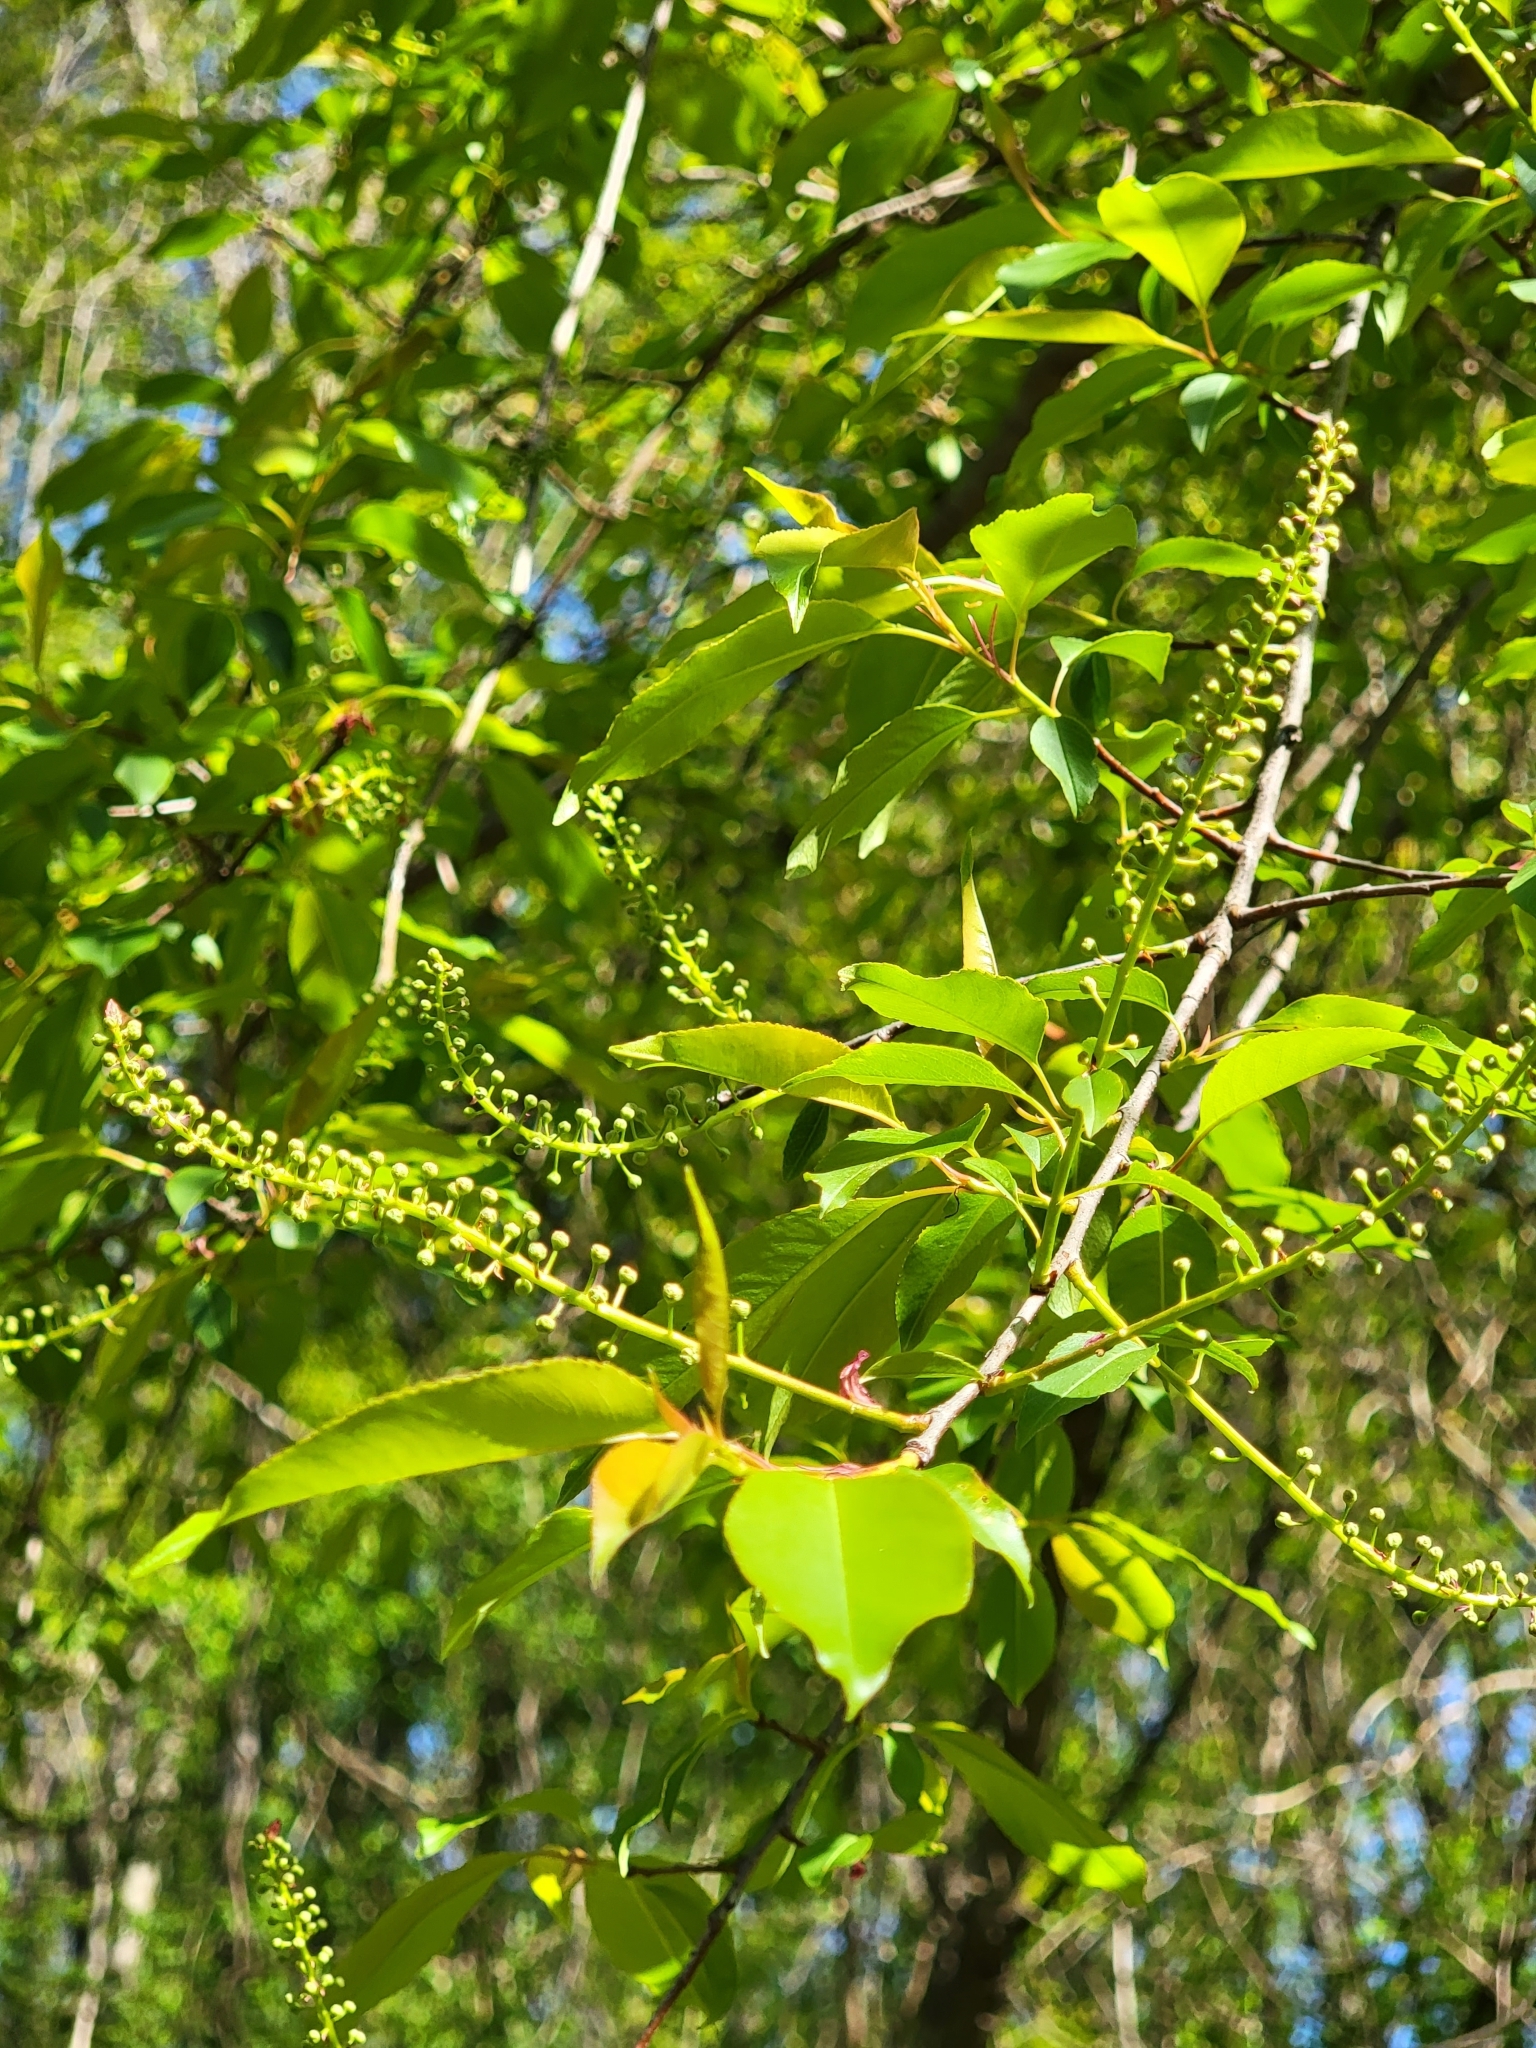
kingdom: Plantae
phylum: Tracheophyta
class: Magnoliopsida
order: Rosales
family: Rosaceae
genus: Prunus
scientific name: Prunus serotina
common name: Black cherry
